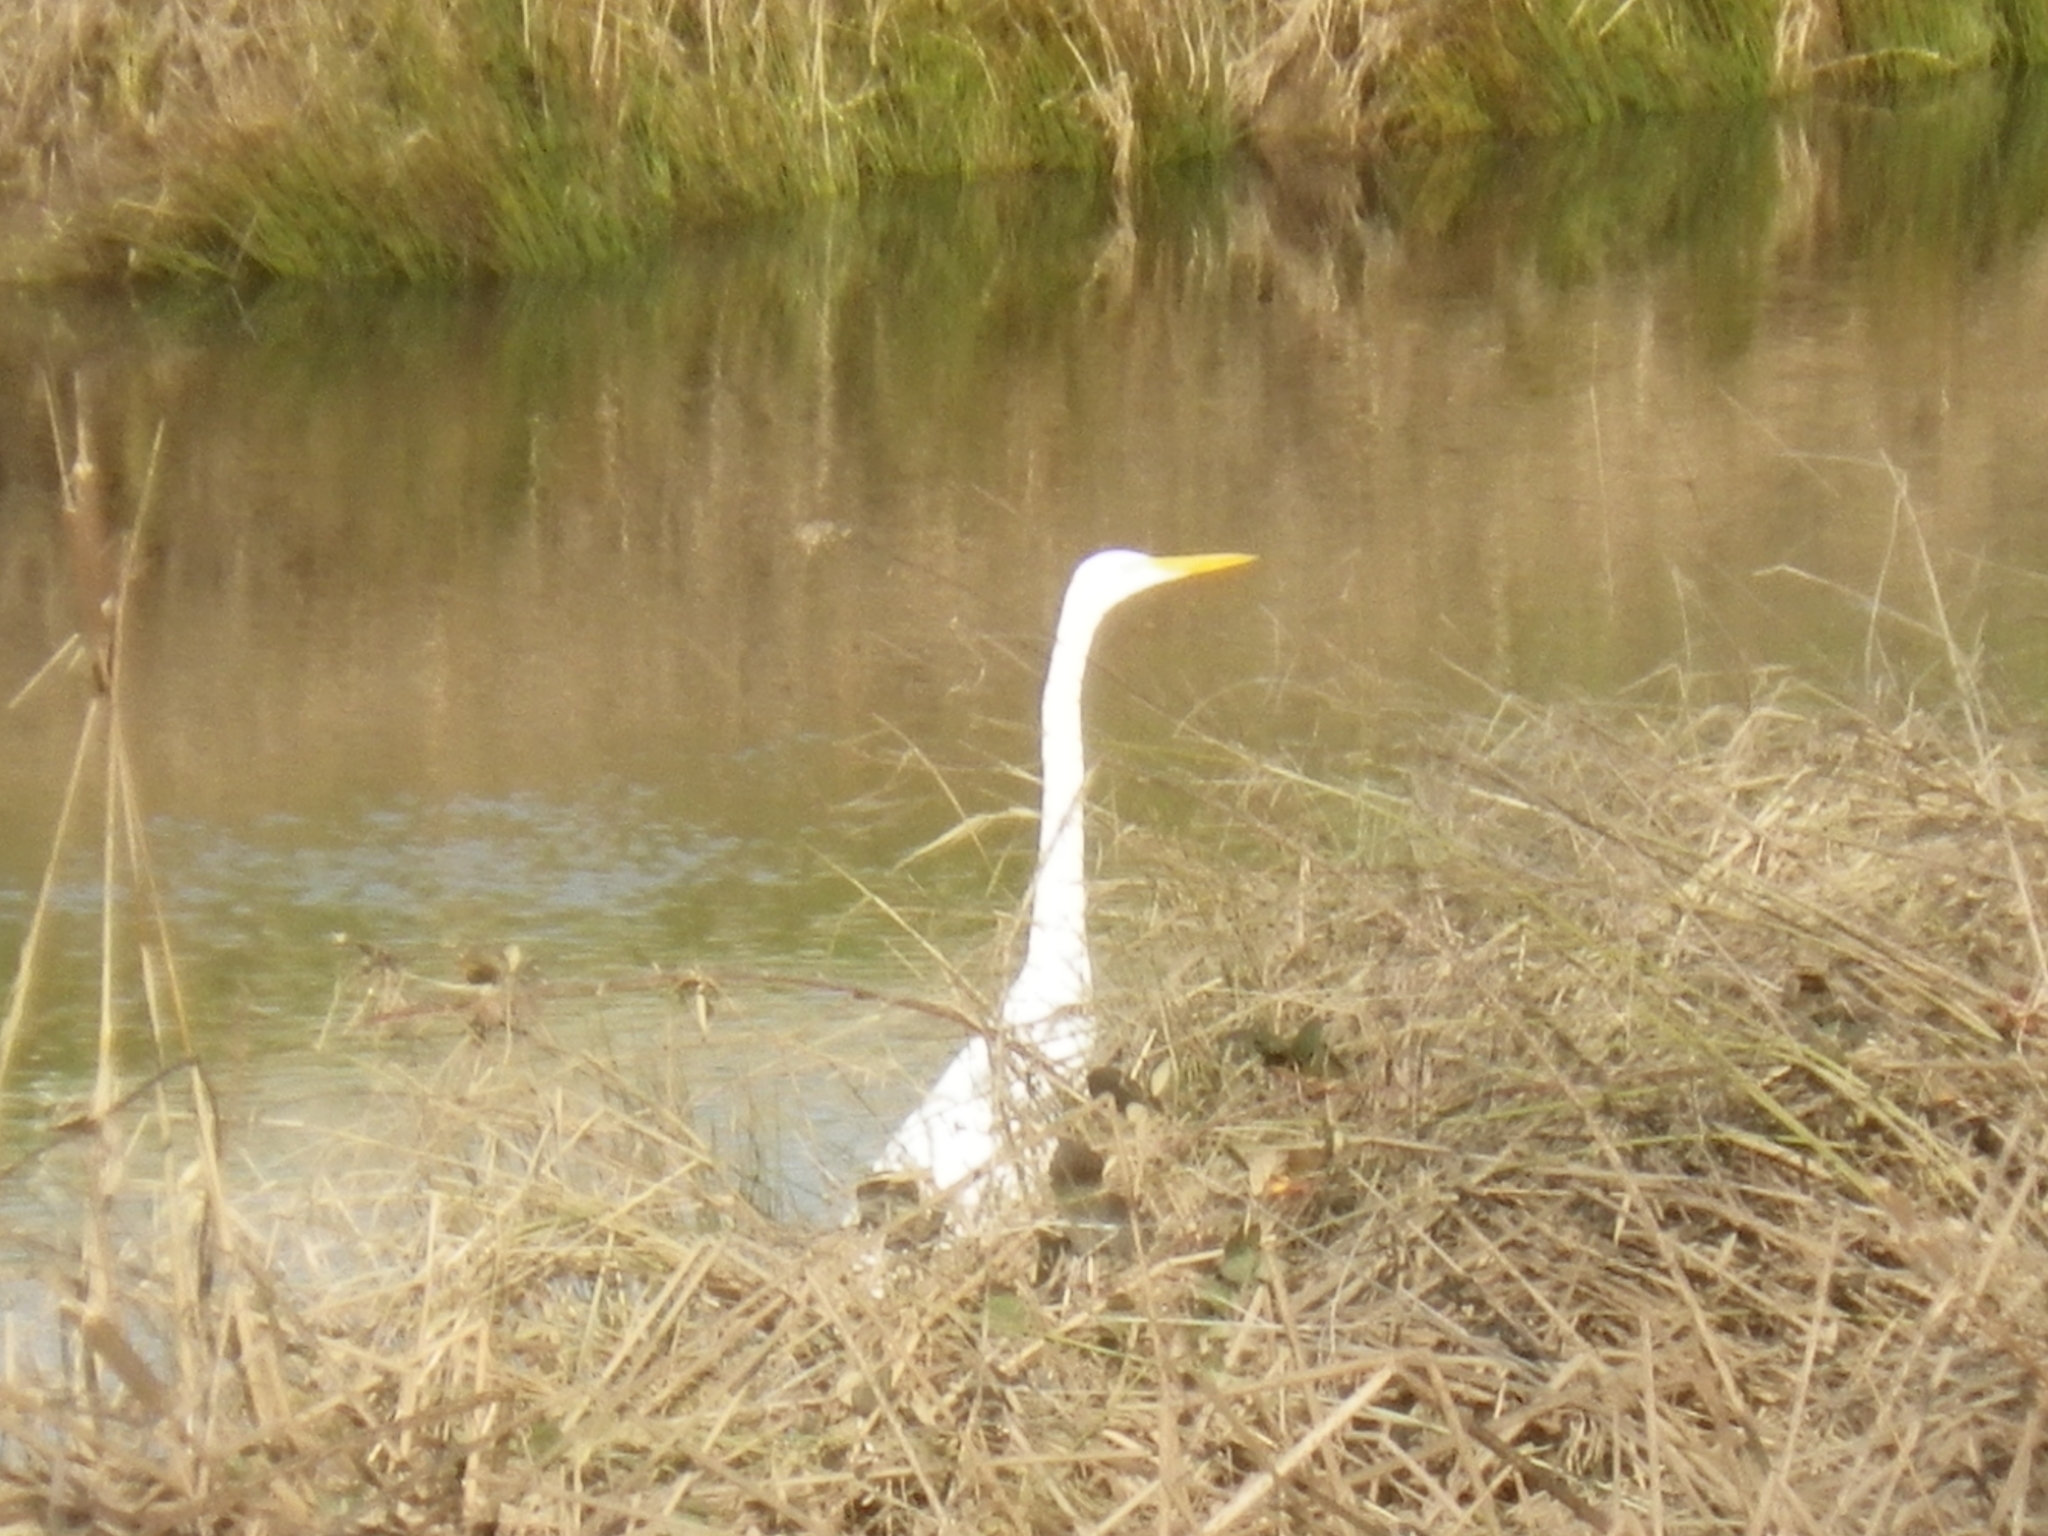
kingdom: Animalia
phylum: Chordata
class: Aves
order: Pelecaniformes
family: Ardeidae
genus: Ardea
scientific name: Ardea alba
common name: Great egret
